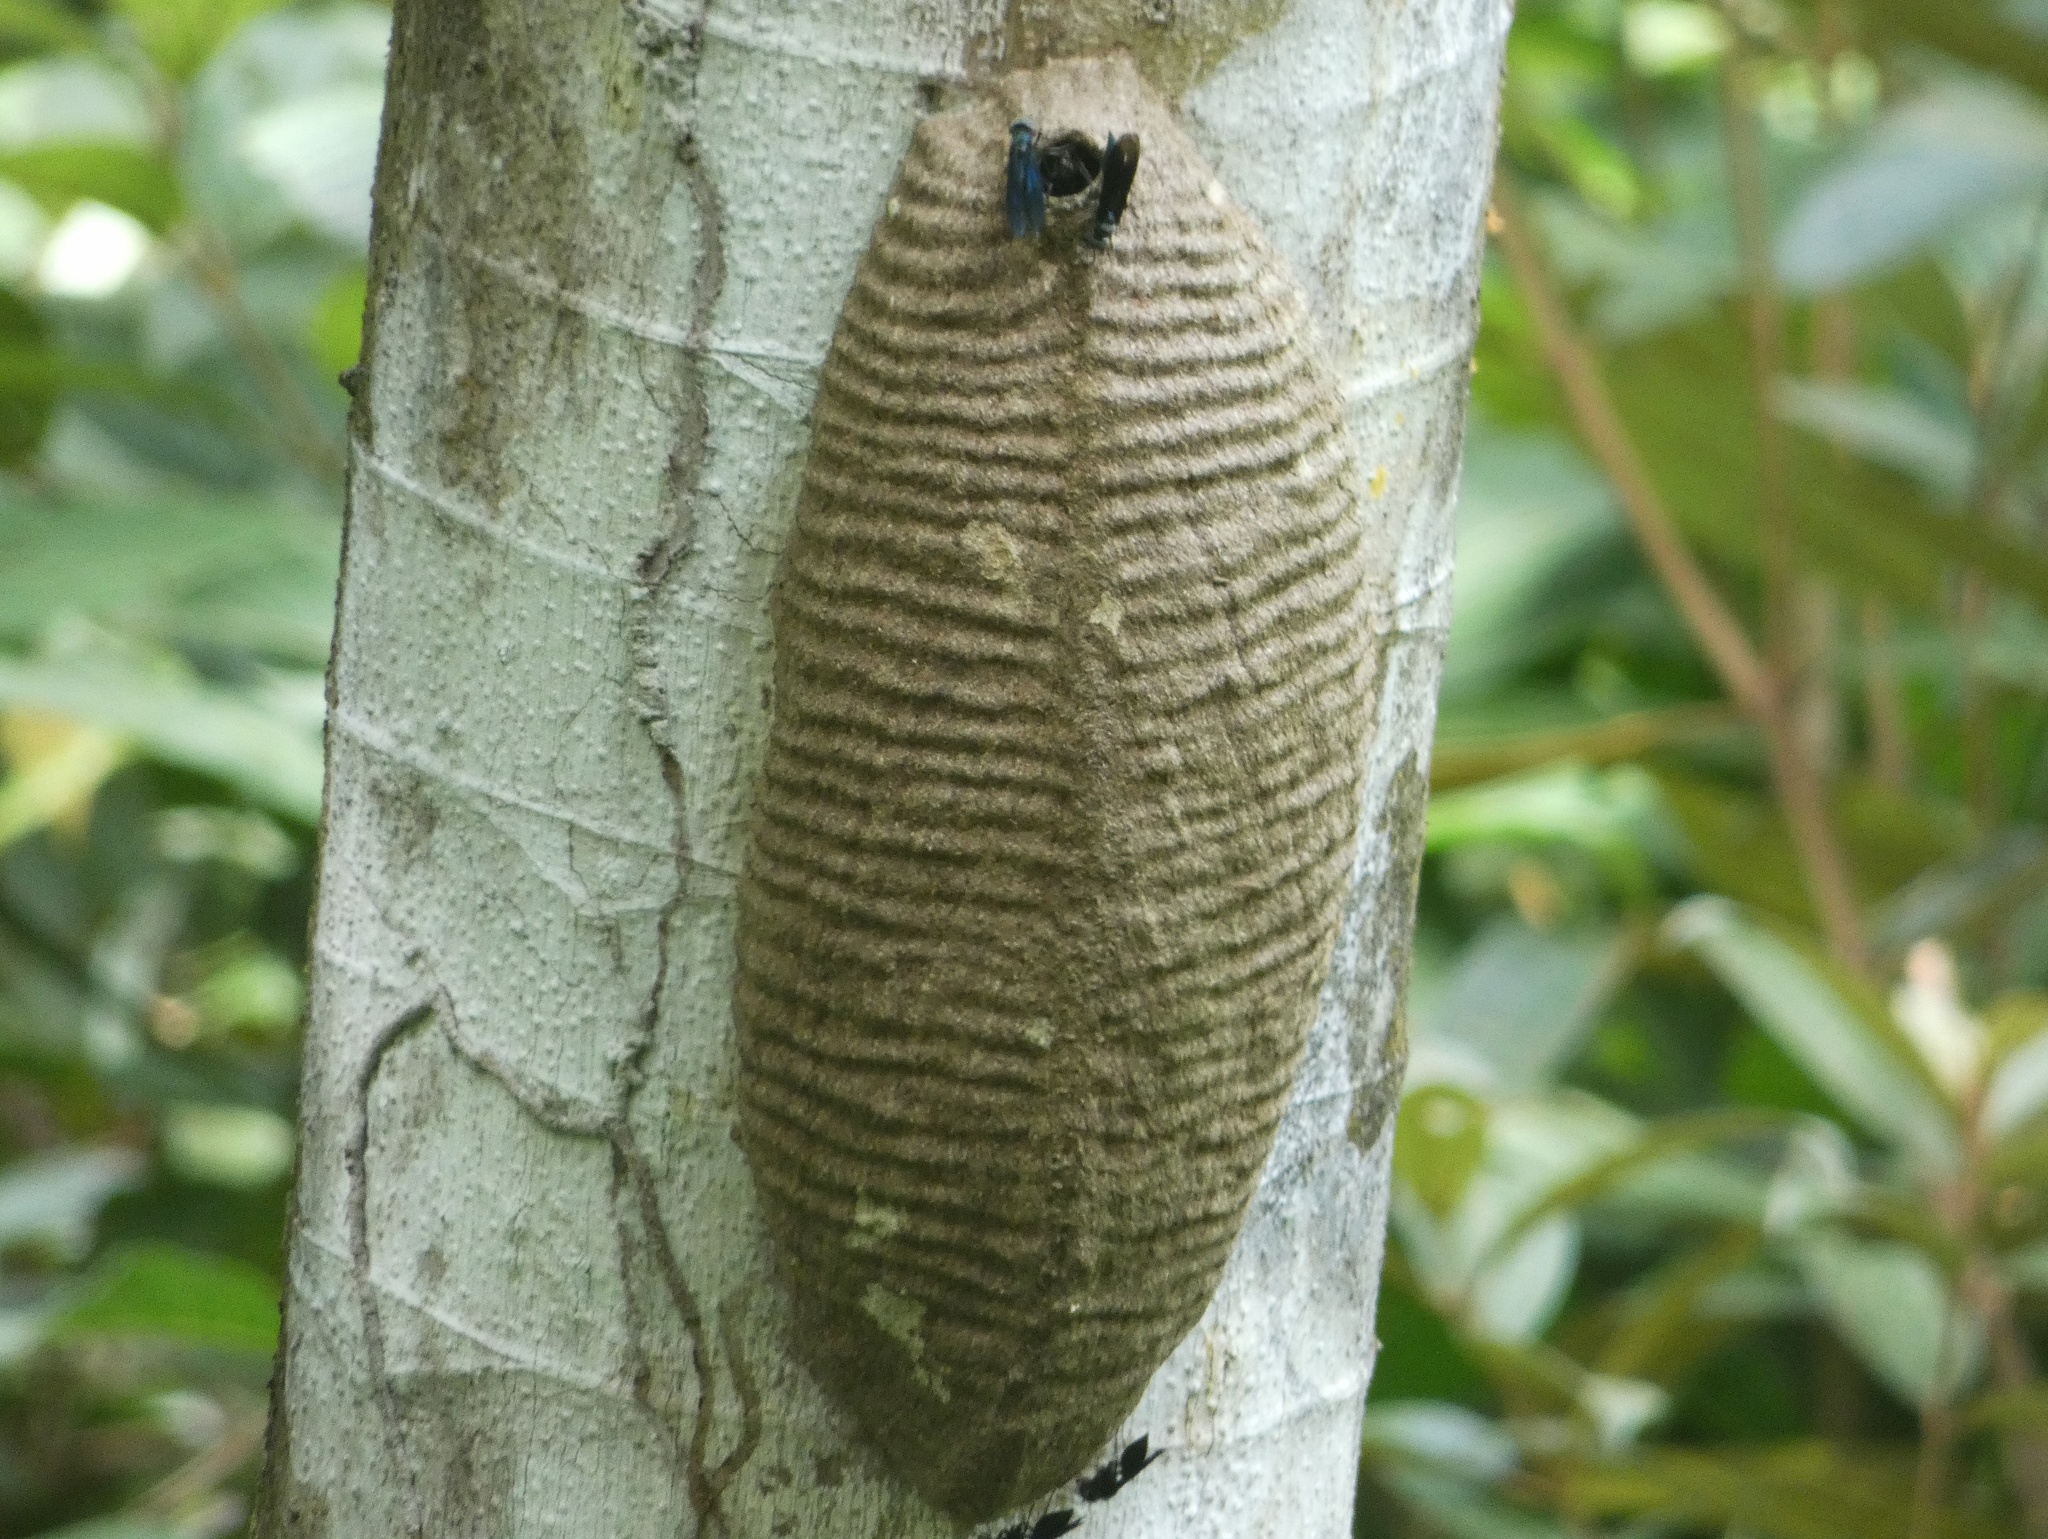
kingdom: Animalia
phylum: Arthropoda
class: Insecta
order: Hymenoptera
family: Vespidae
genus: Synoeca
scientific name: Synoeca septentrionalis
